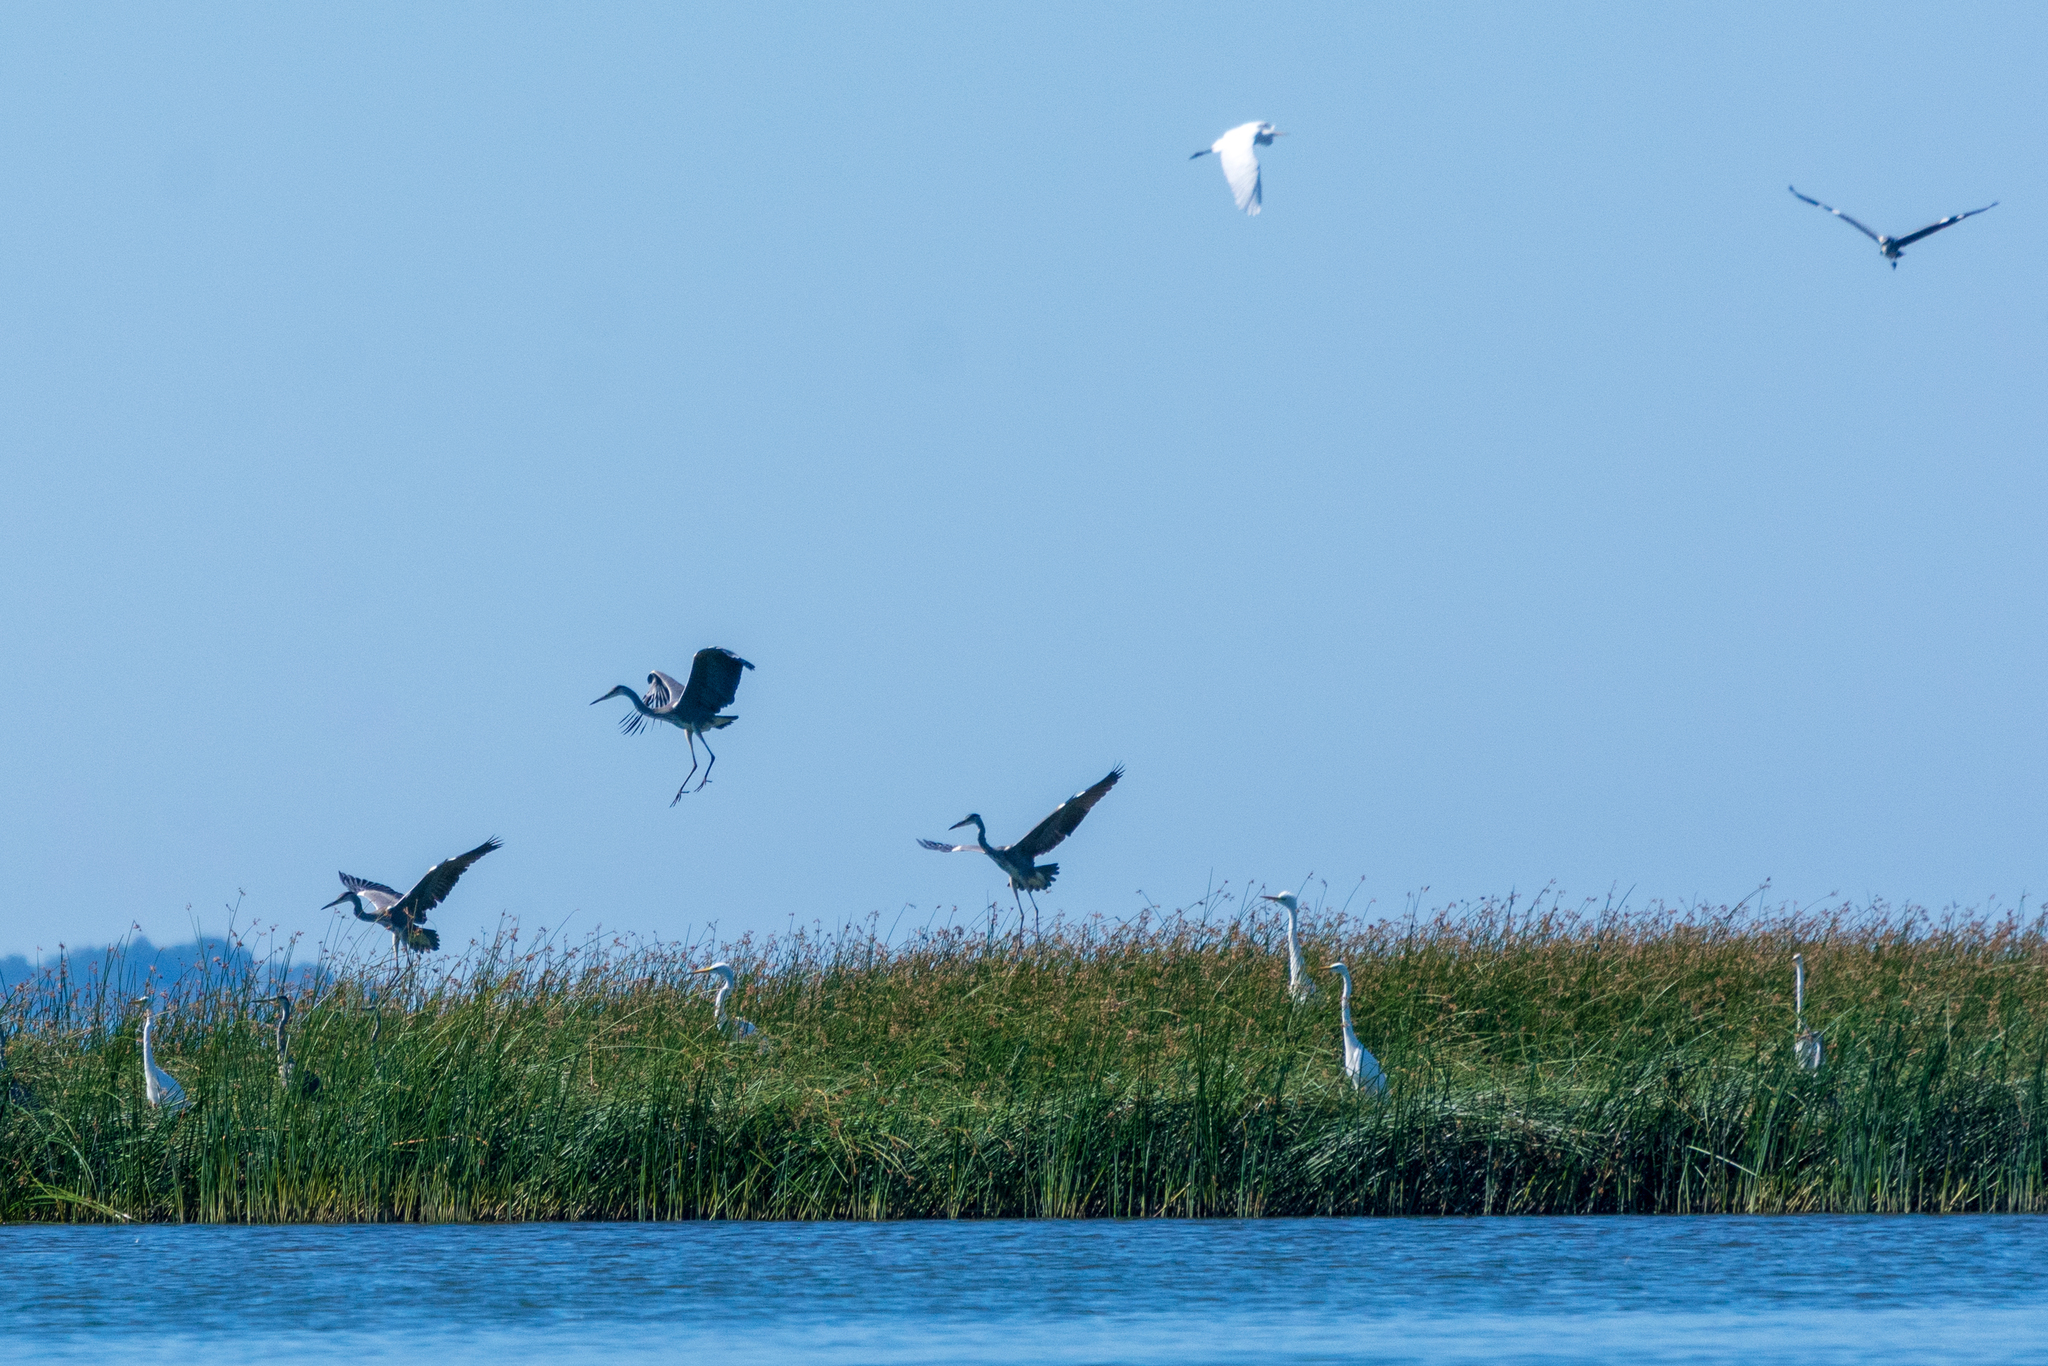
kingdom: Animalia
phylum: Chordata
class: Aves
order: Pelecaniformes
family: Ardeidae
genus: Ardea
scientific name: Ardea cinerea
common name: Grey heron
